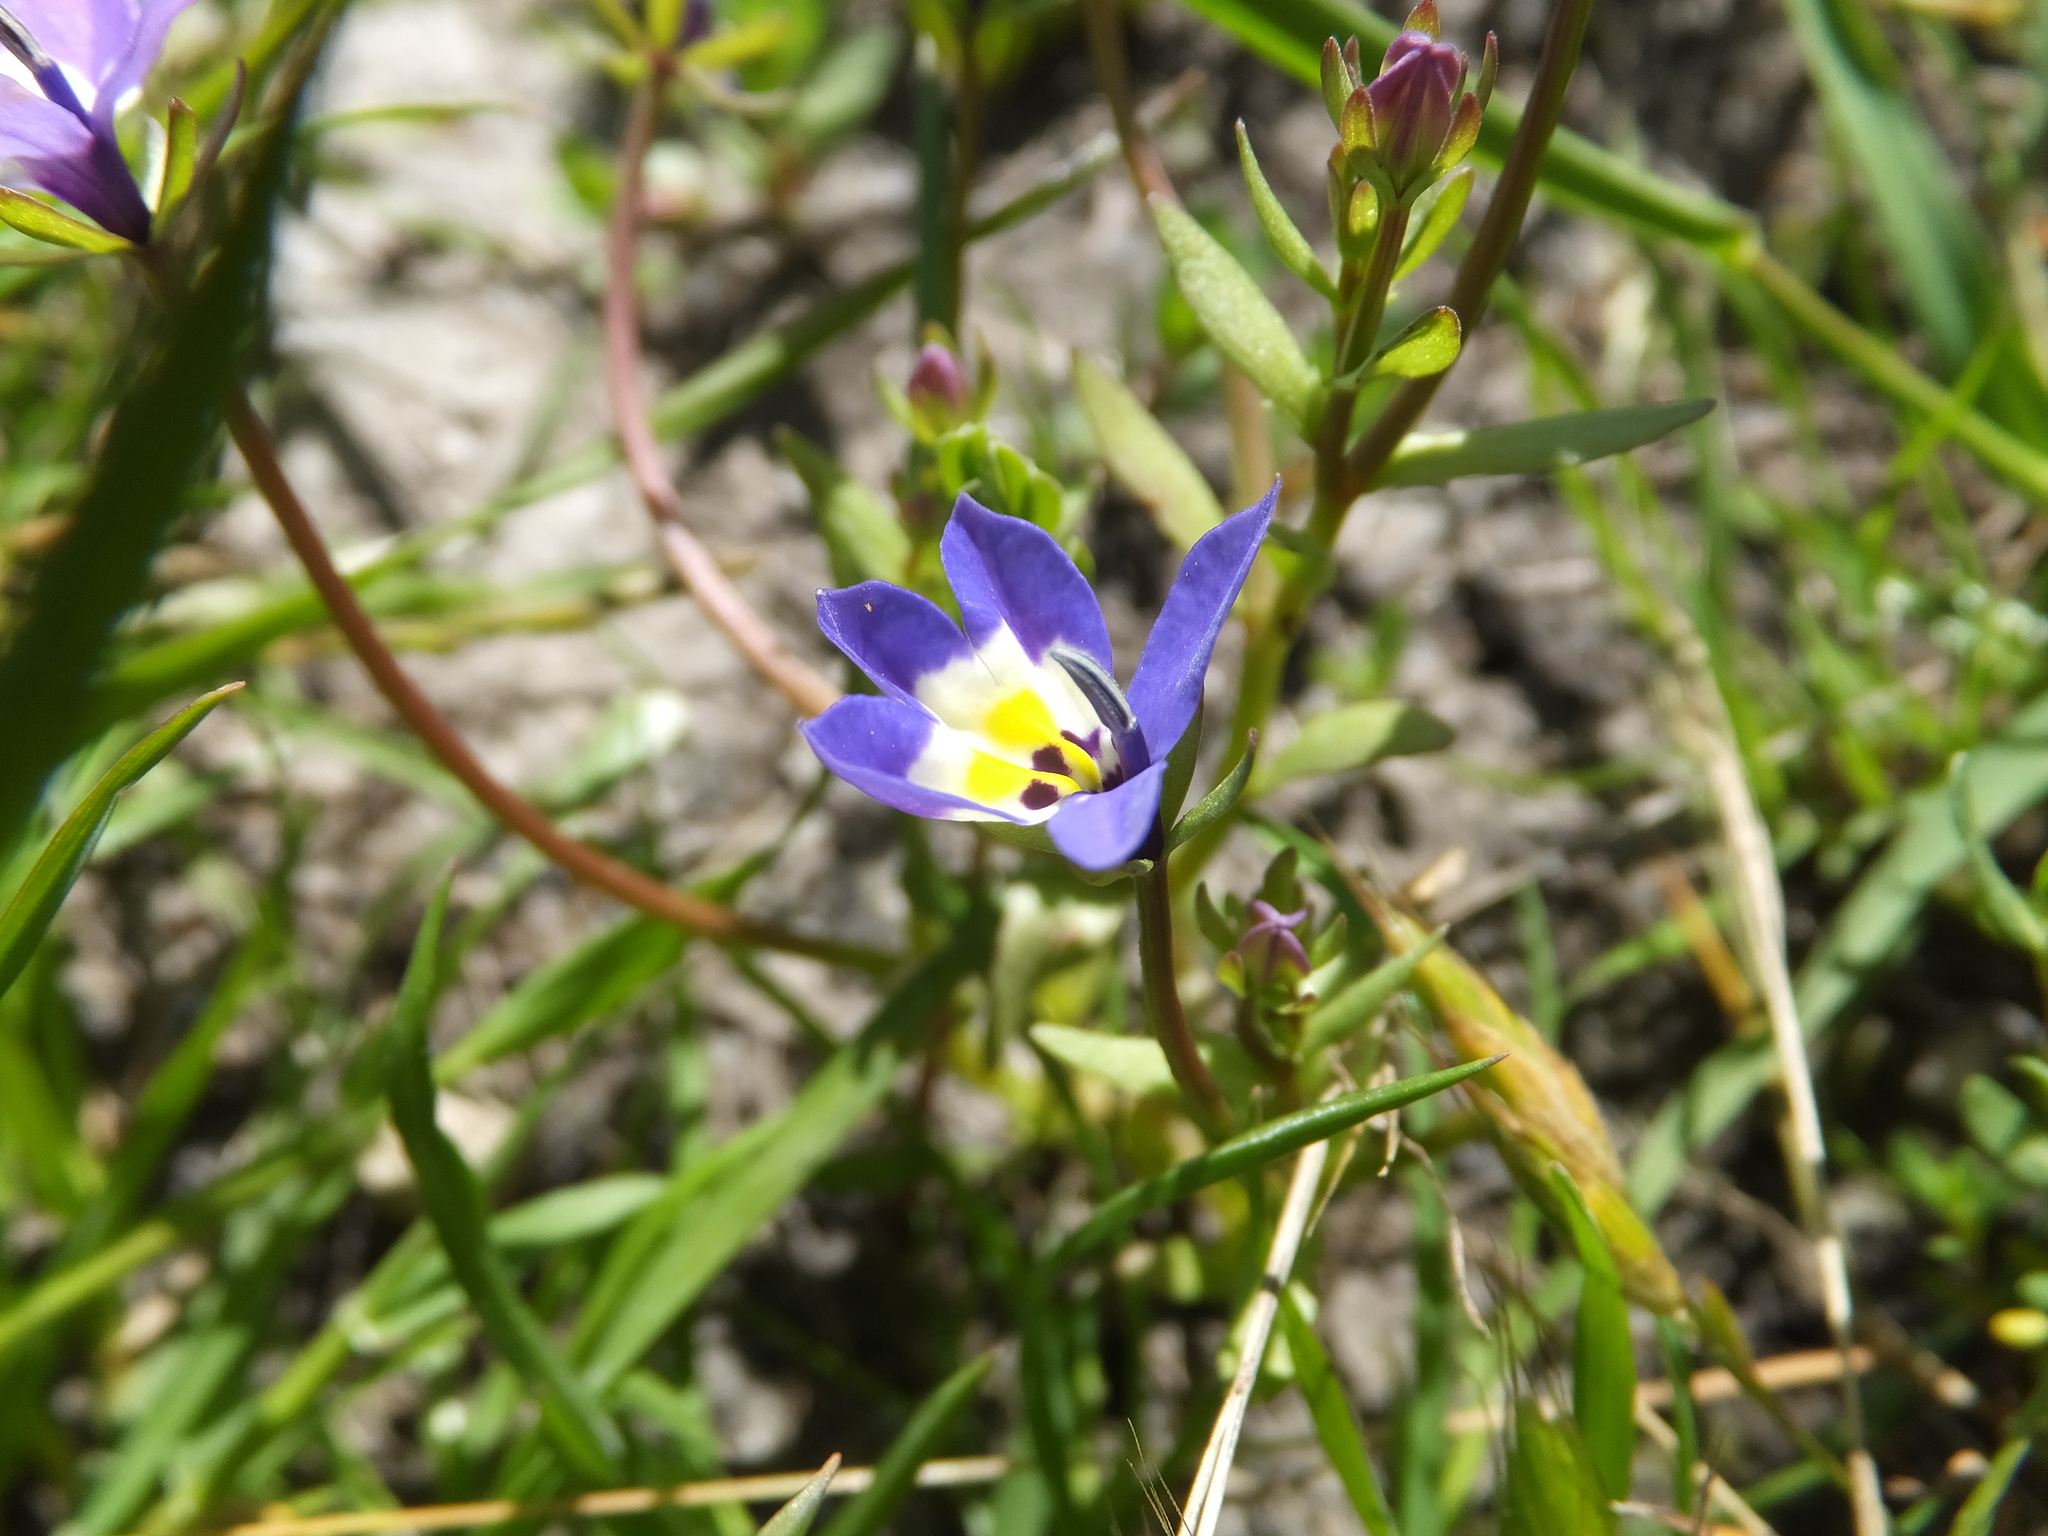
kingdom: Plantae
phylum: Tracheophyta
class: Magnoliopsida
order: Asterales
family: Campanulaceae
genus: Downingia
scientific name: Downingia pulchella
